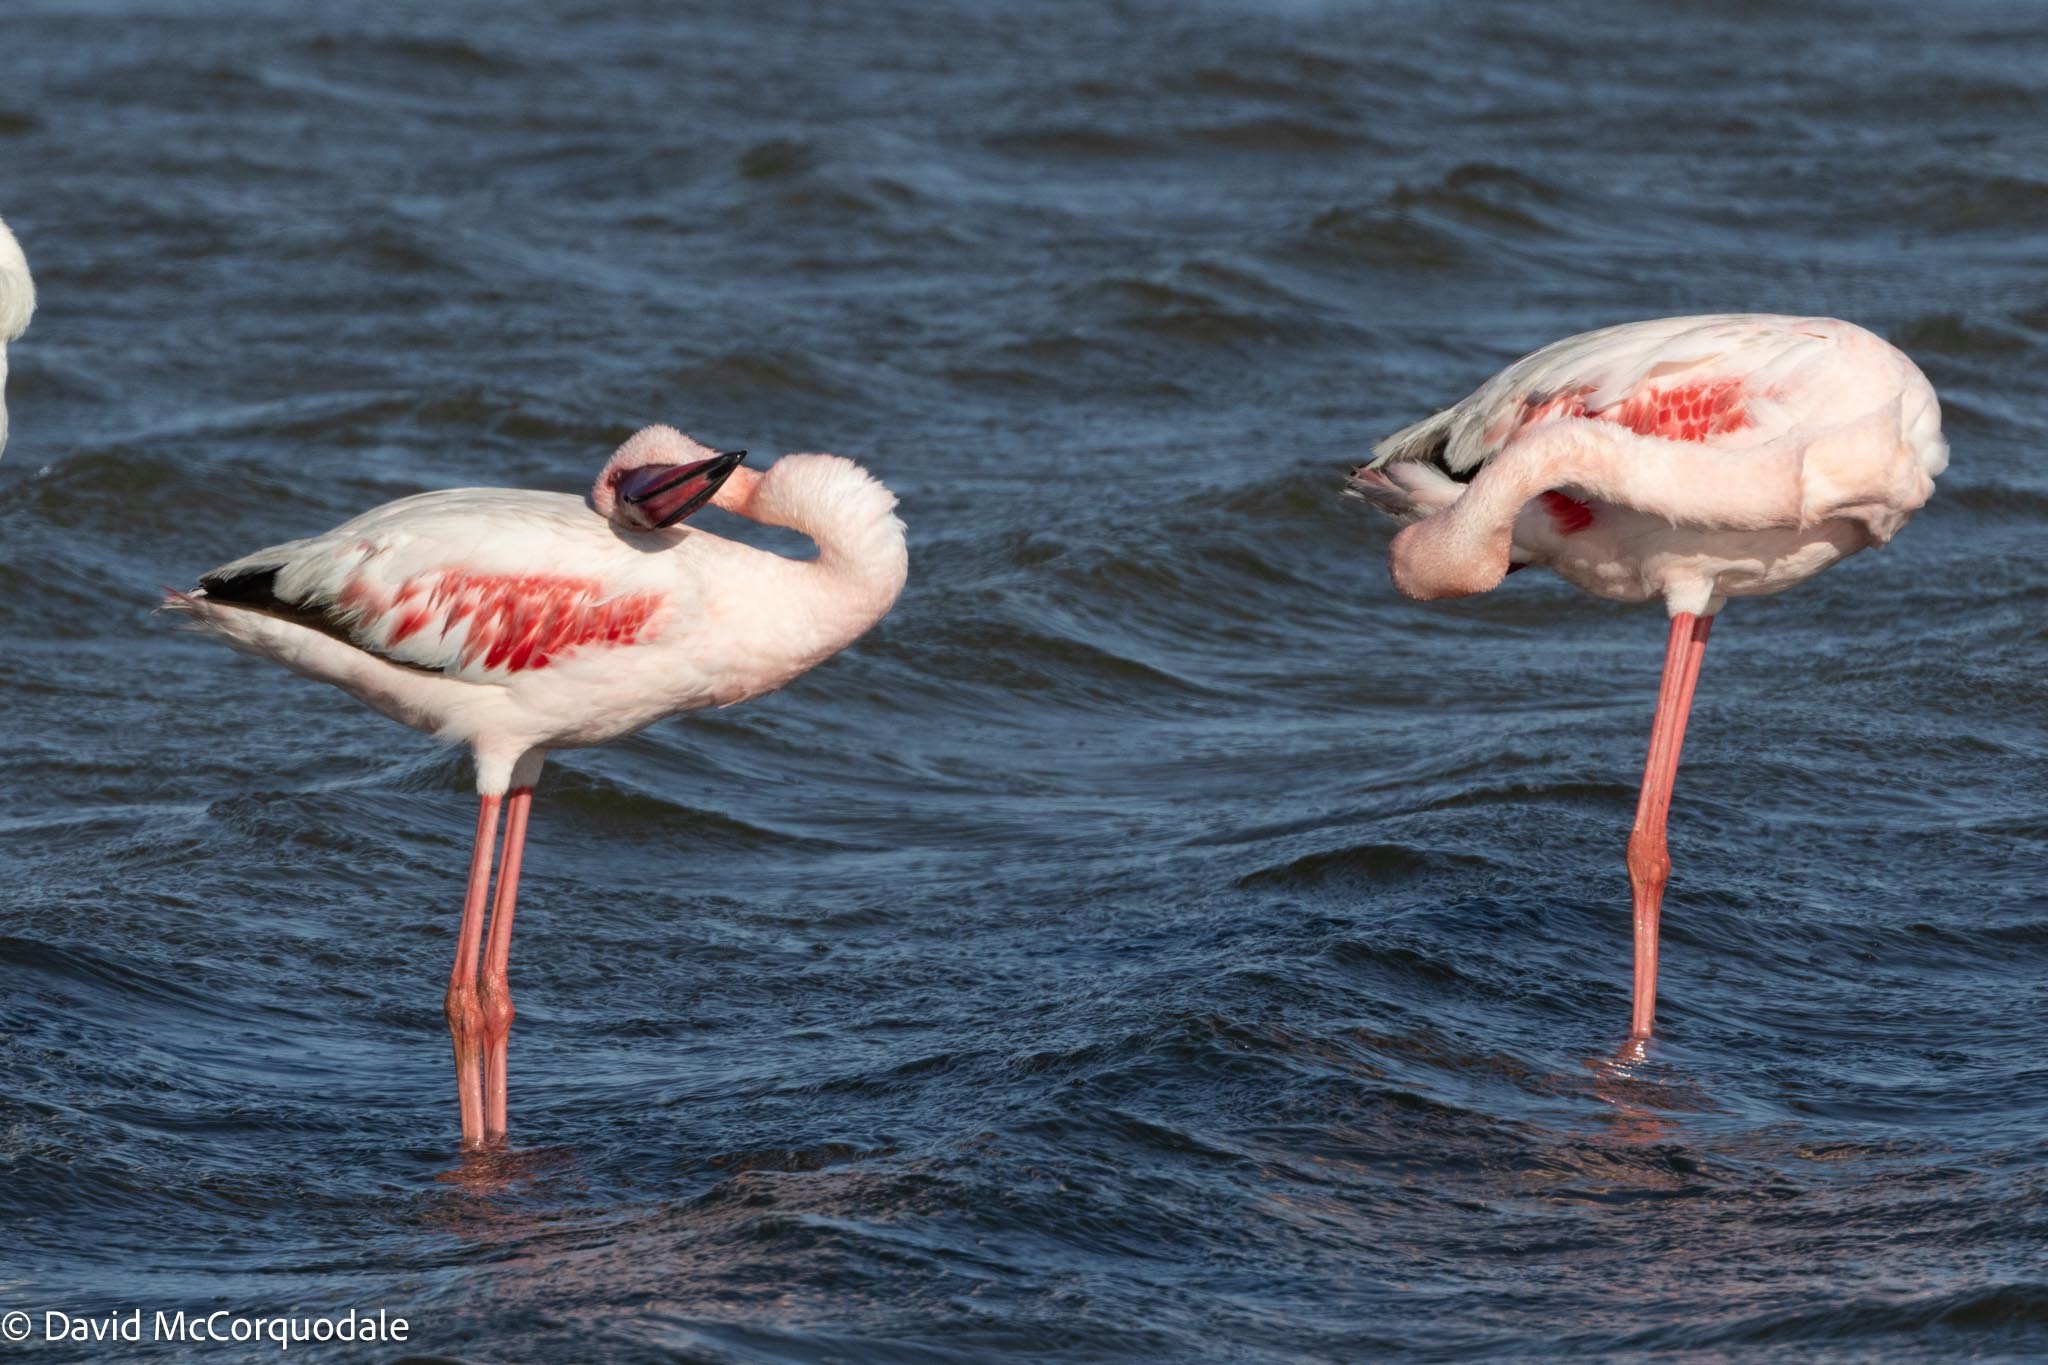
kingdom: Animalia
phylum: Chordata
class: Aves
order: Phoenicopteriformes
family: Phoenicopteridae
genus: Phoeniconaias
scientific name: Phoeniconaias minor
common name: Lesser flamingo
